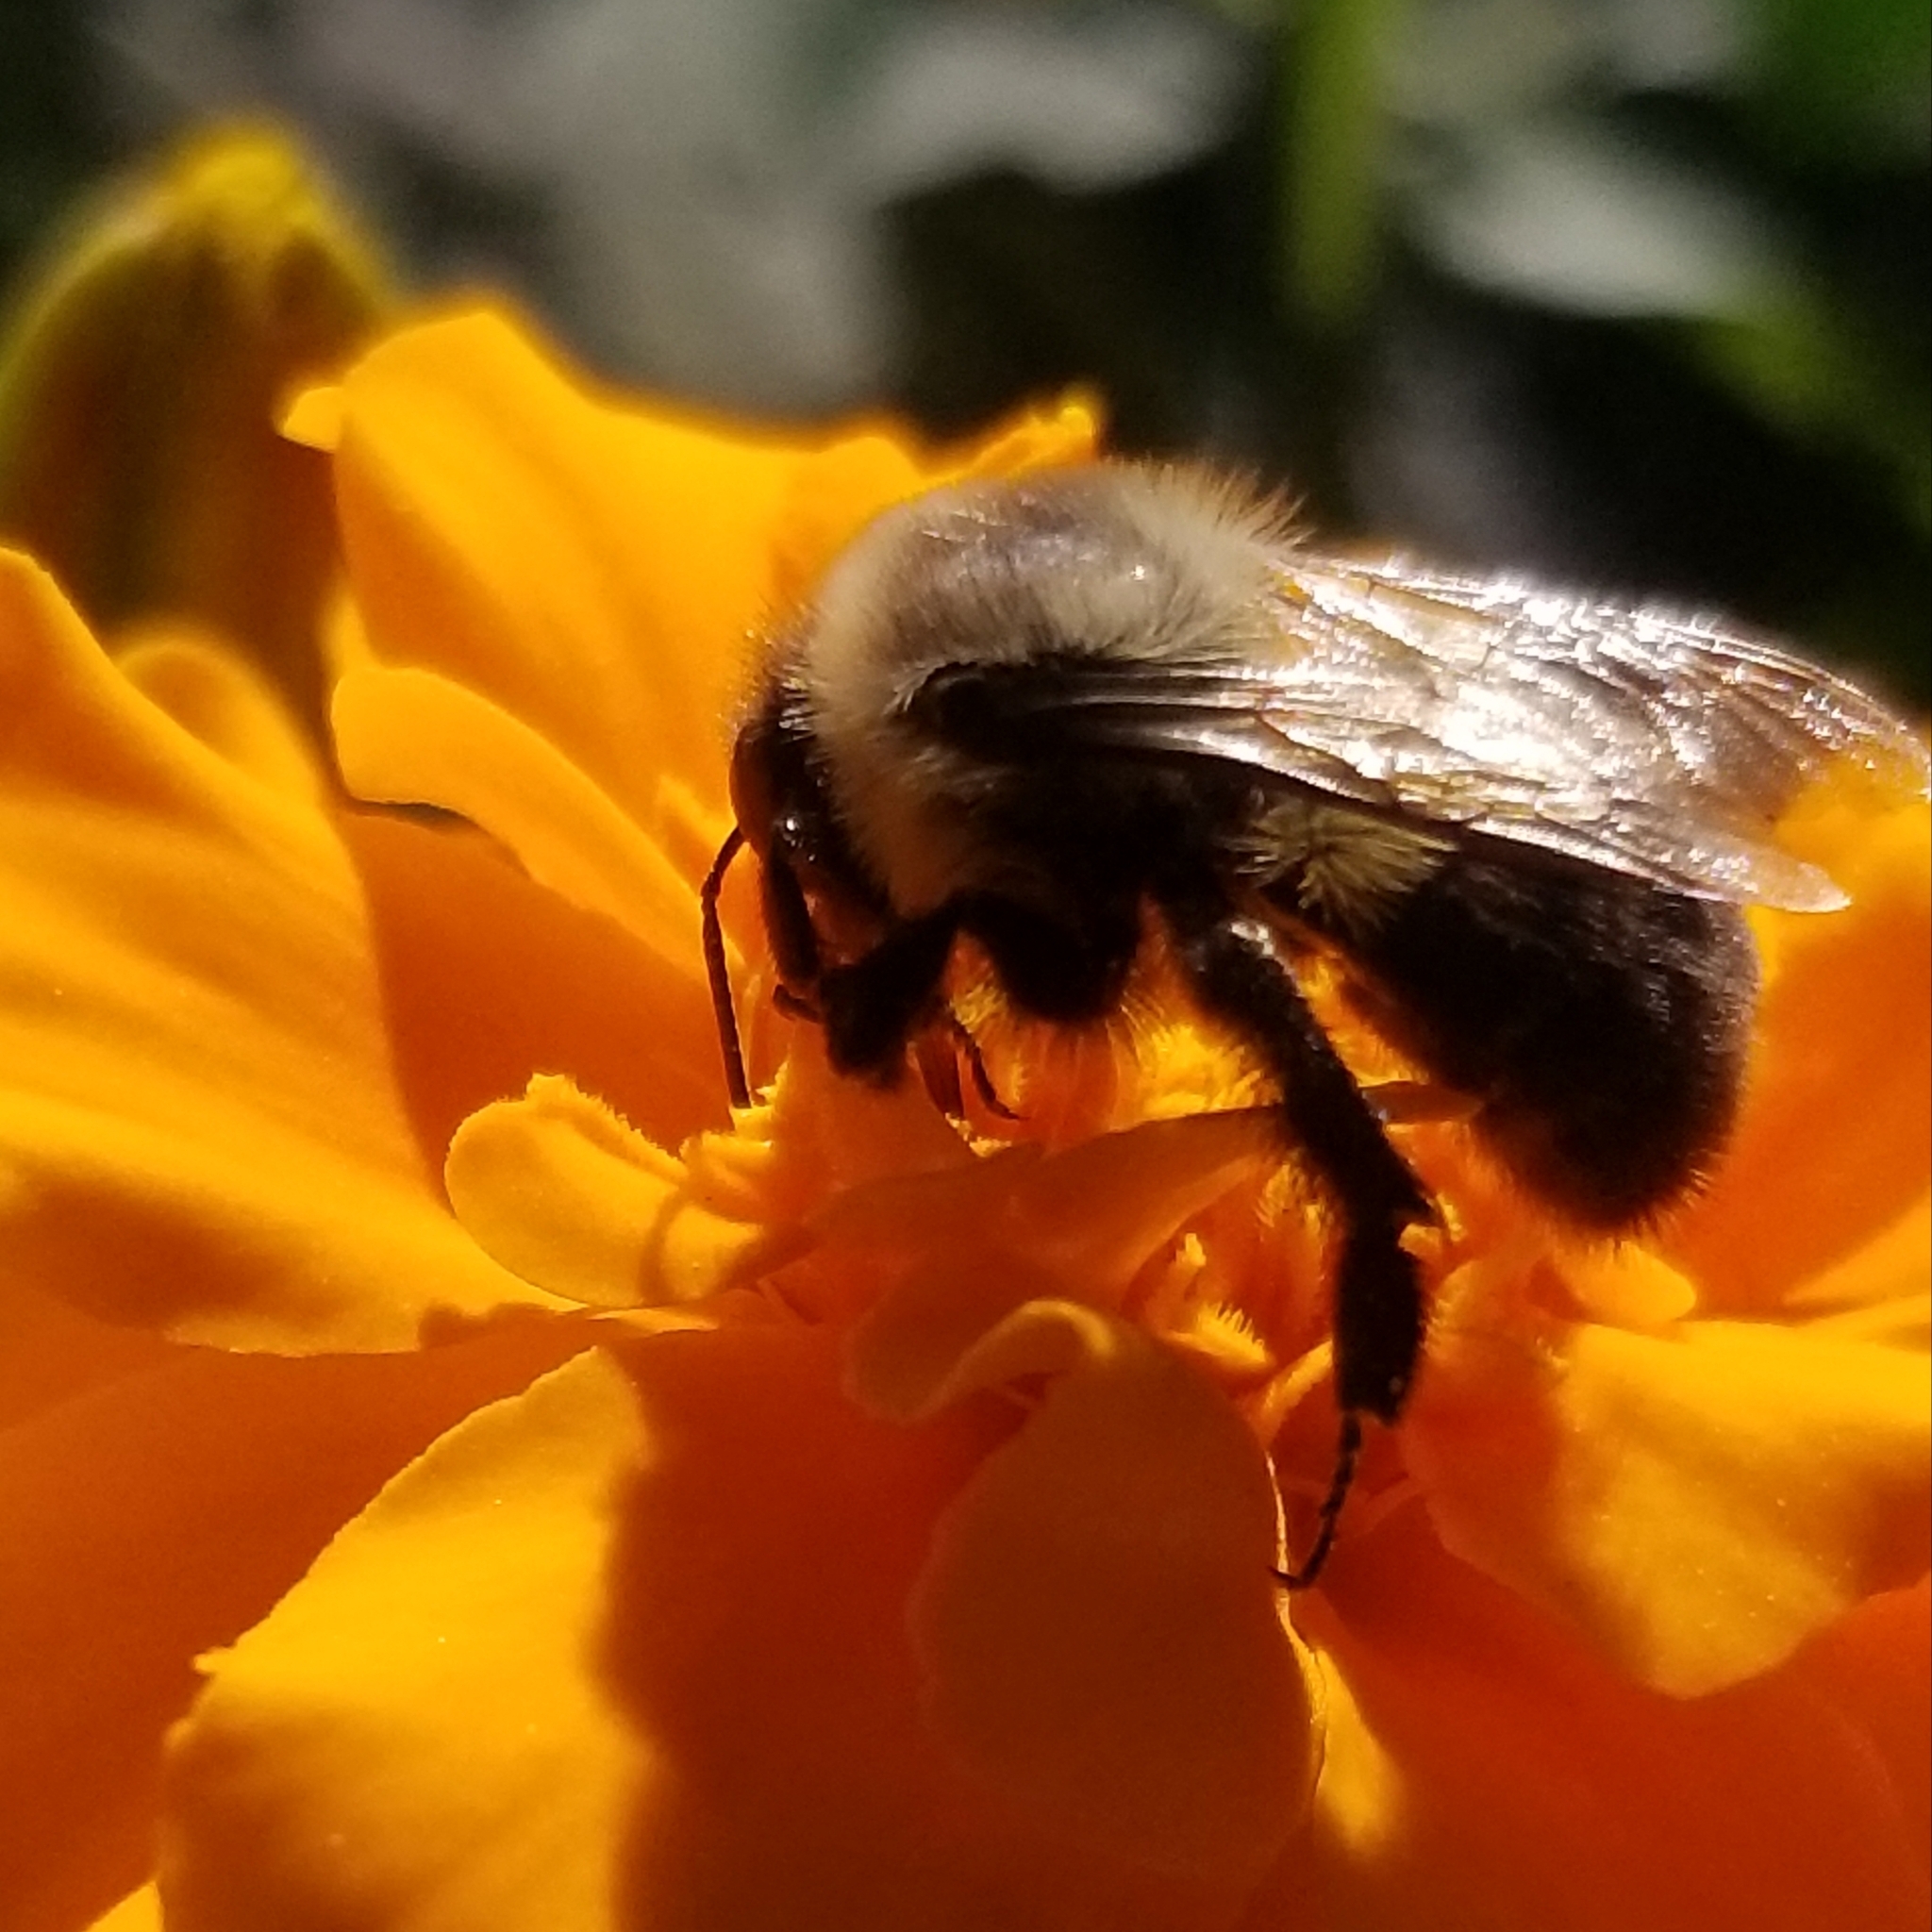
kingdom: Animalia
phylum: Arthropoda
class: Insecta
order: Hymenoptera
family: Apidae
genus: Bombus
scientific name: Bombus impatiens
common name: Common eastern bumble bee
